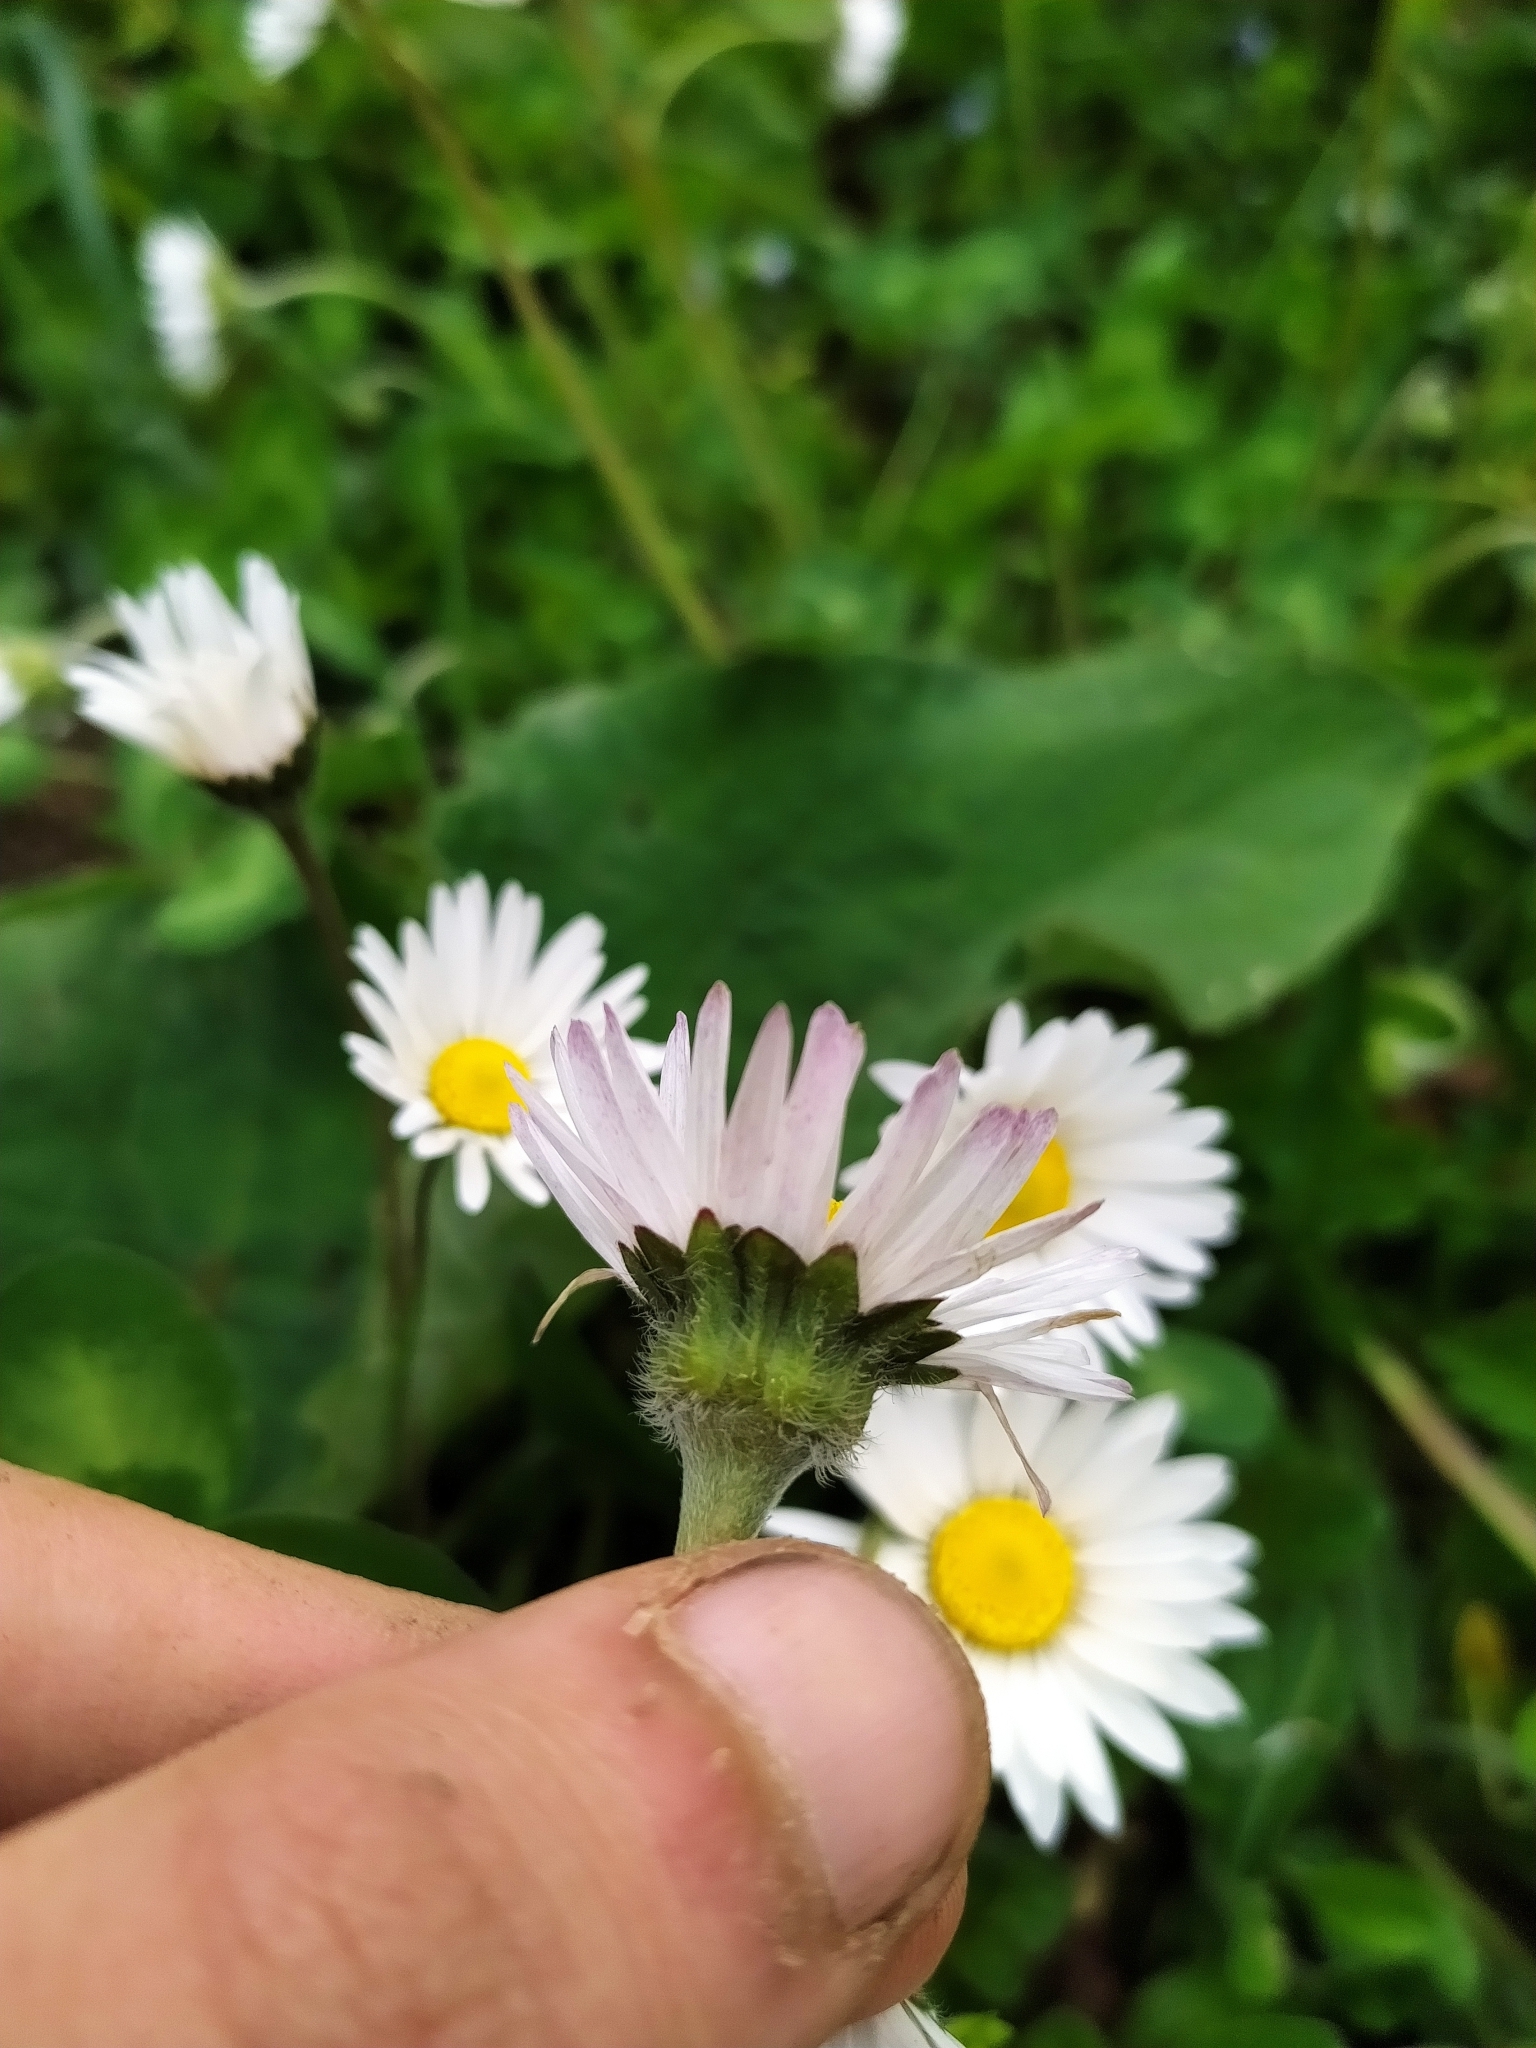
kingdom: Plantae
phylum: Tracheophyta
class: Magnoliopsida
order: Asterales
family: Asteraceae
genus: Bellis
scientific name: Bellis perennis
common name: Lawndaisy
